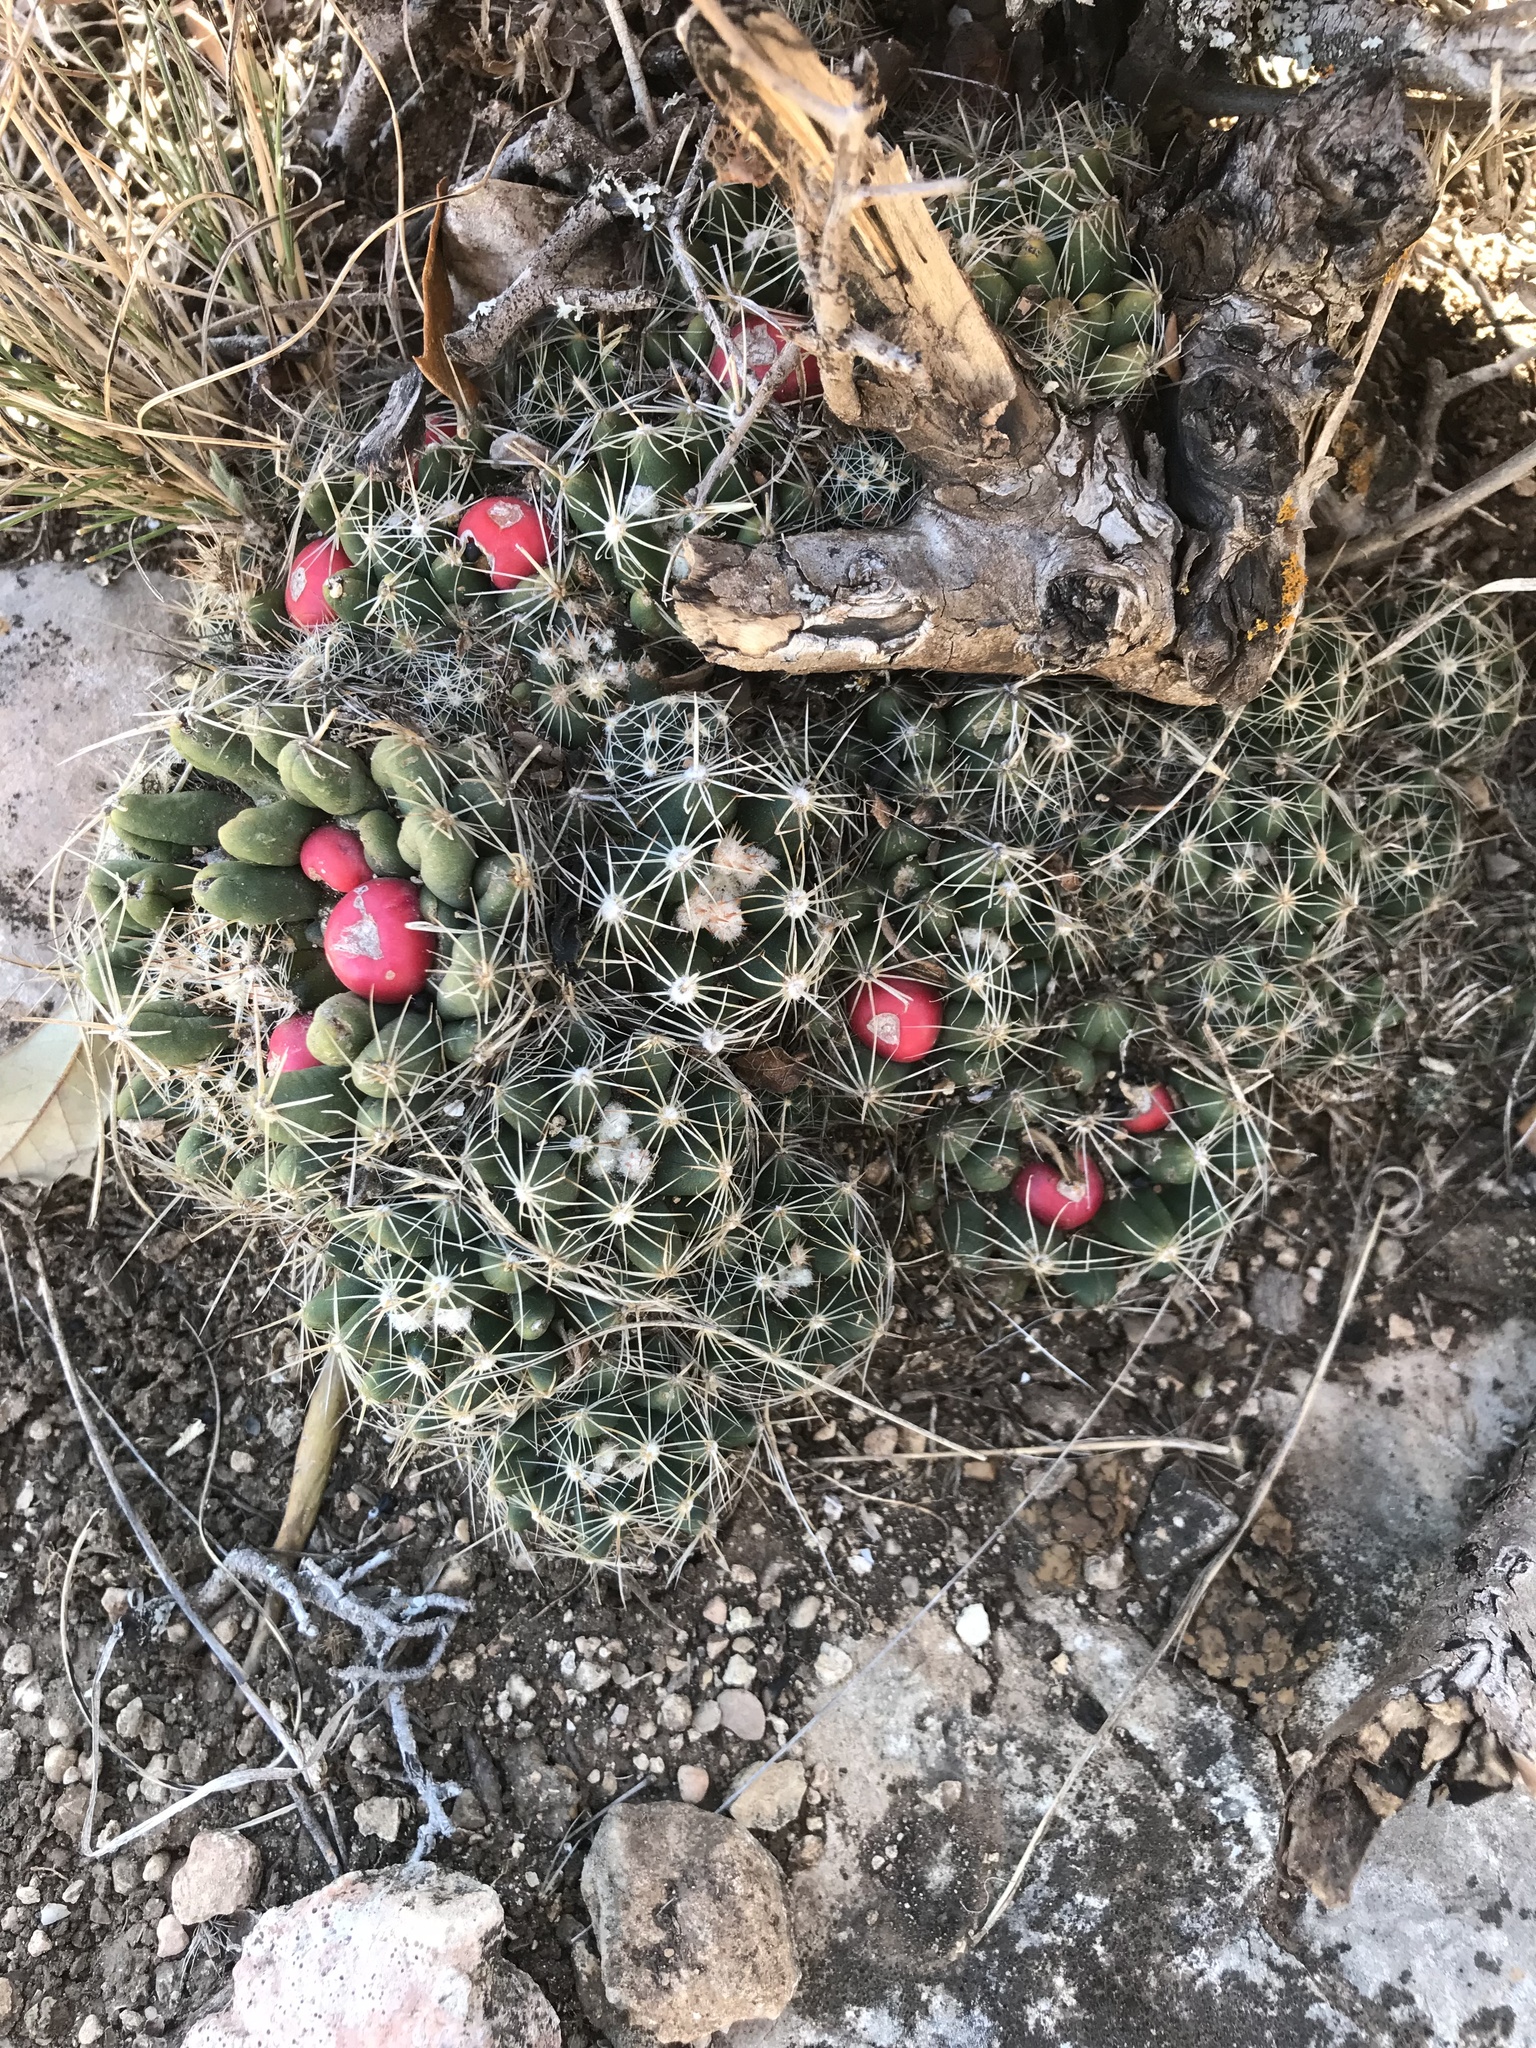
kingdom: Plantae
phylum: Tracheophyta
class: Magnoliopsida
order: Caryophyllales
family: Cactaceae
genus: Pelecyphora
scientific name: Pelecyphora missouriensis
